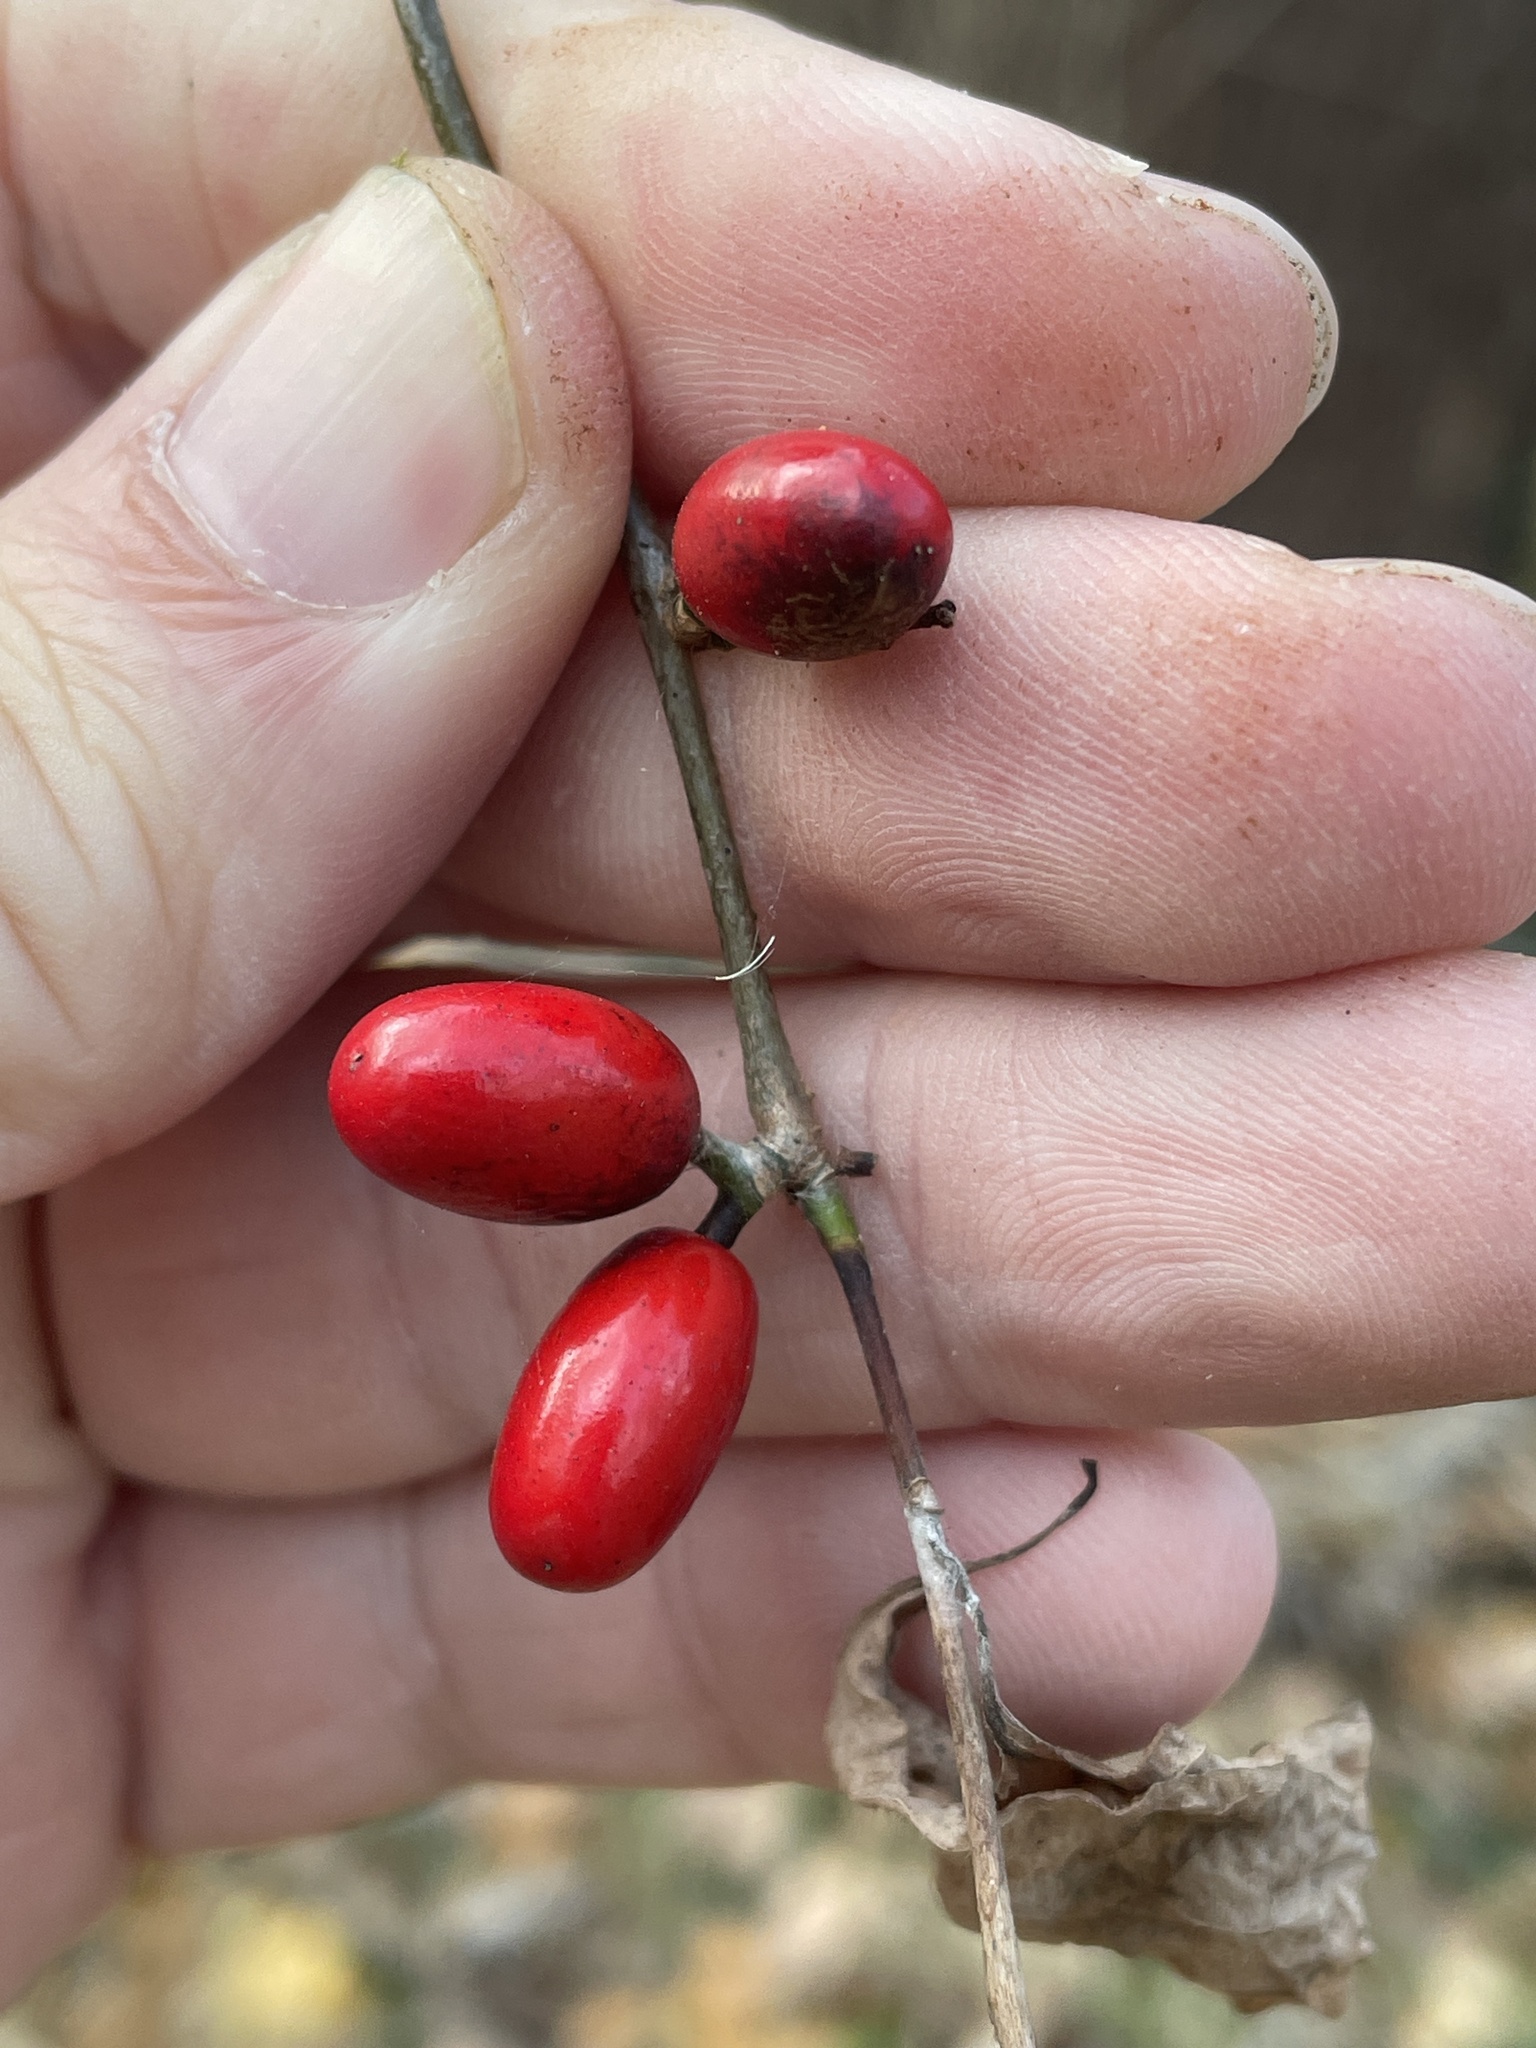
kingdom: Plantae
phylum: Tracheophyta
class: Magnoliopsida
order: Laurales
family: Lauraceae
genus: Lindera
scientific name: Lindera benzoin
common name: Spicebush
